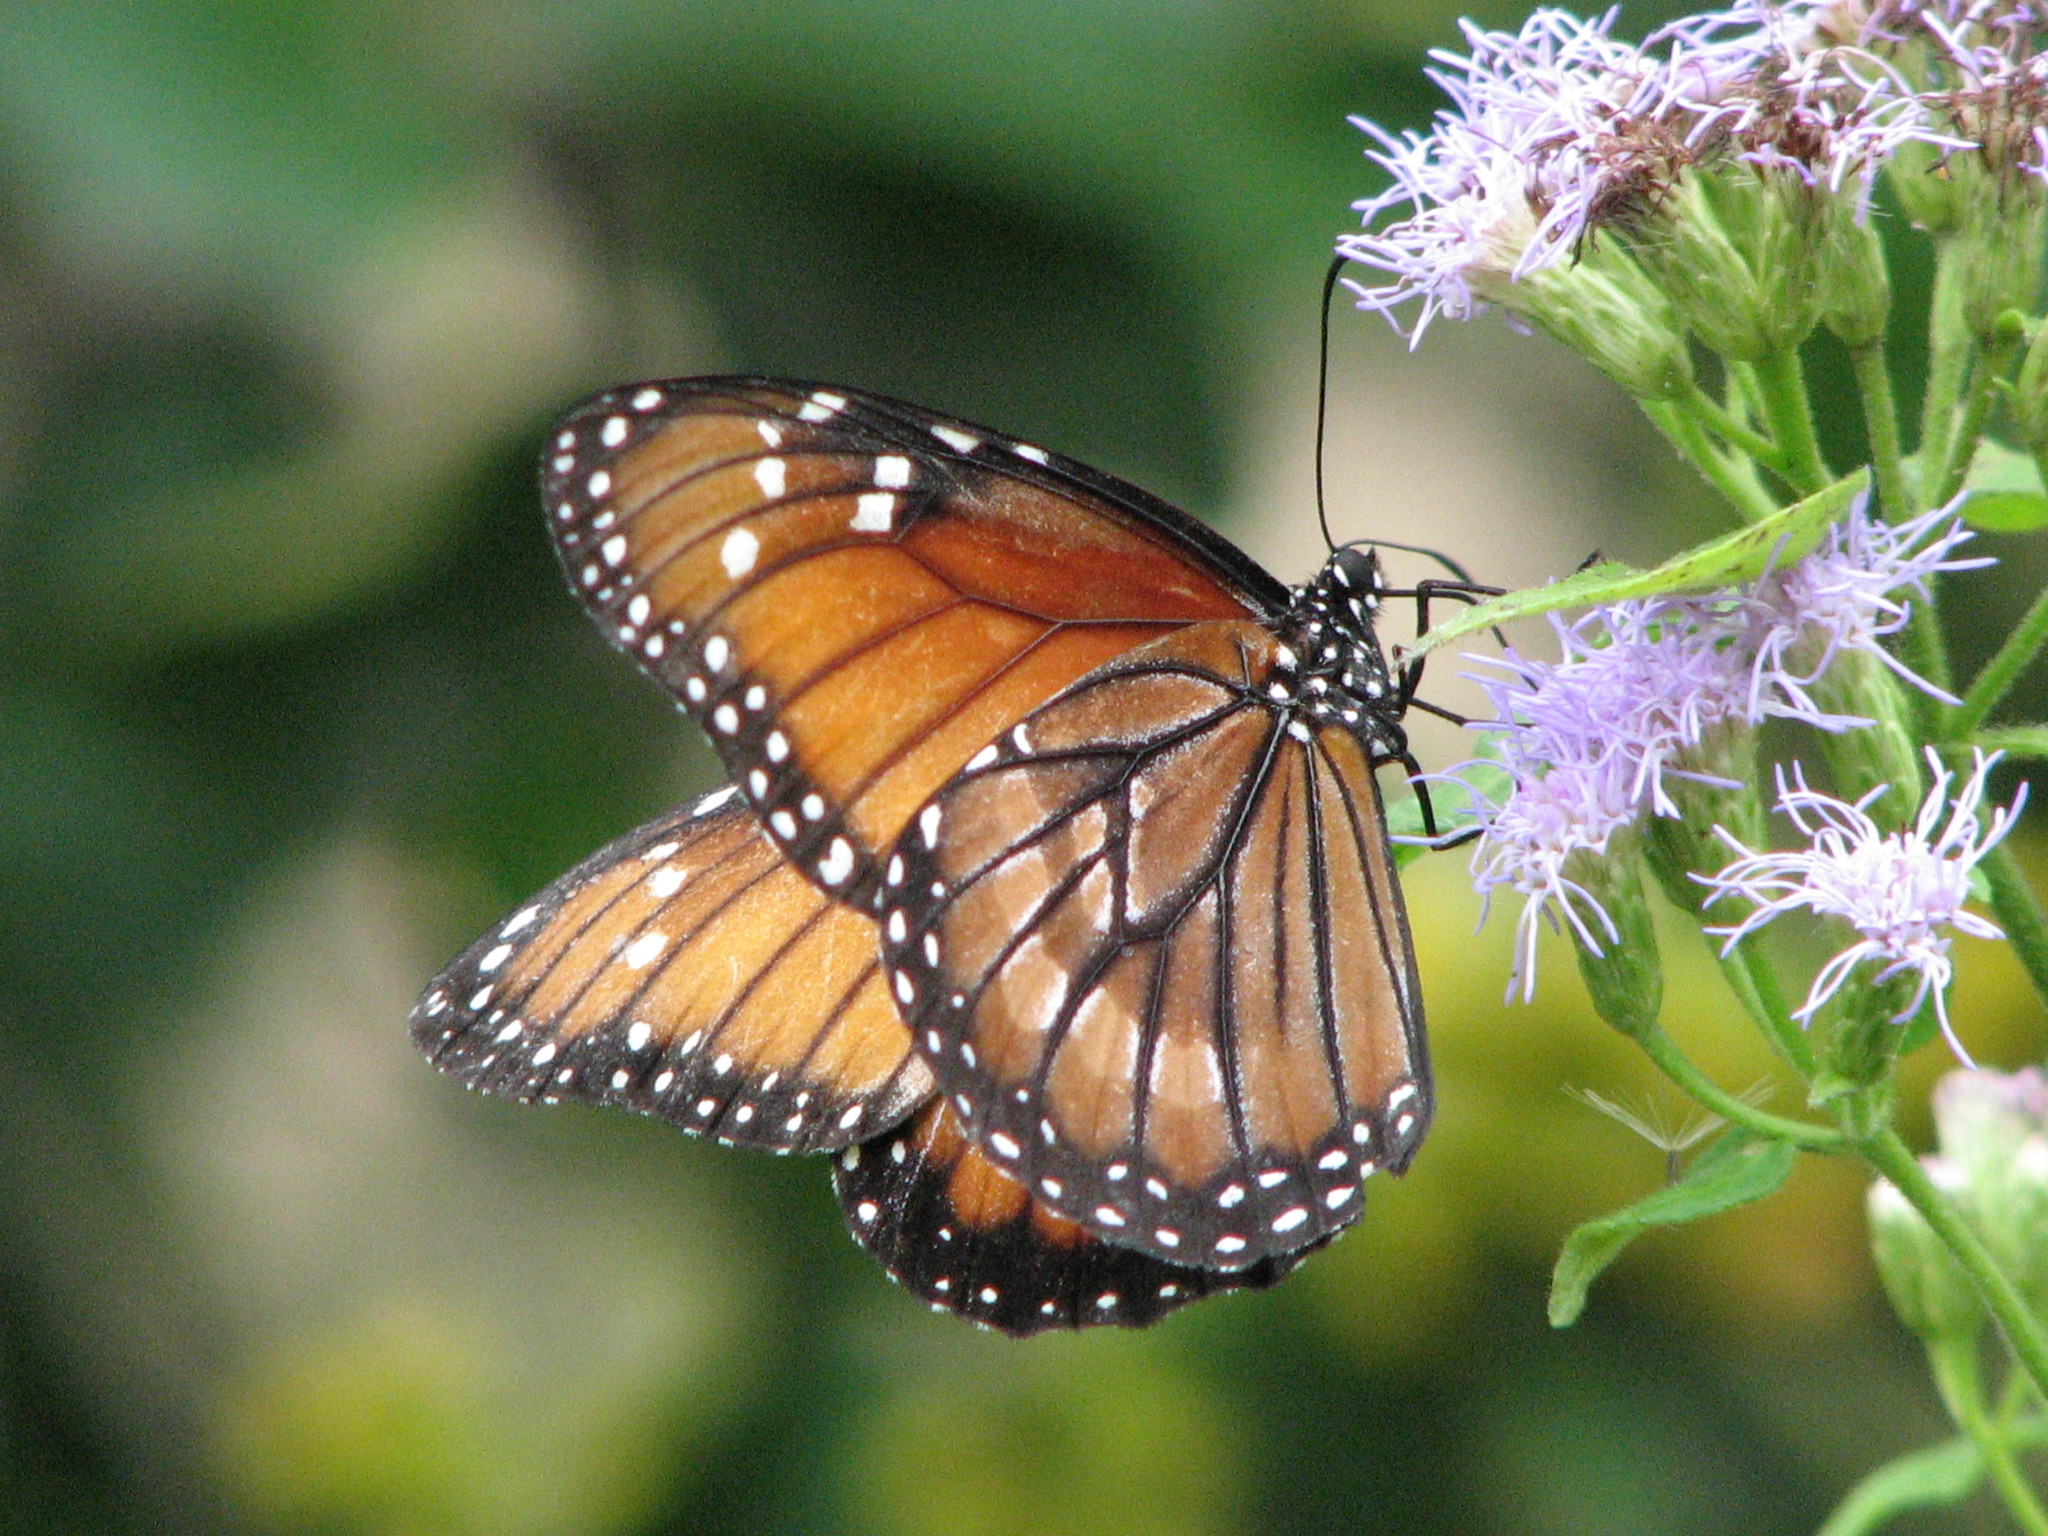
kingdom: Animalia
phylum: Arthropoda
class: Insecta
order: Lepidoptera
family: Nymphalidae
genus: Danaus
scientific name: Danaus eresimus
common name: Soldier
